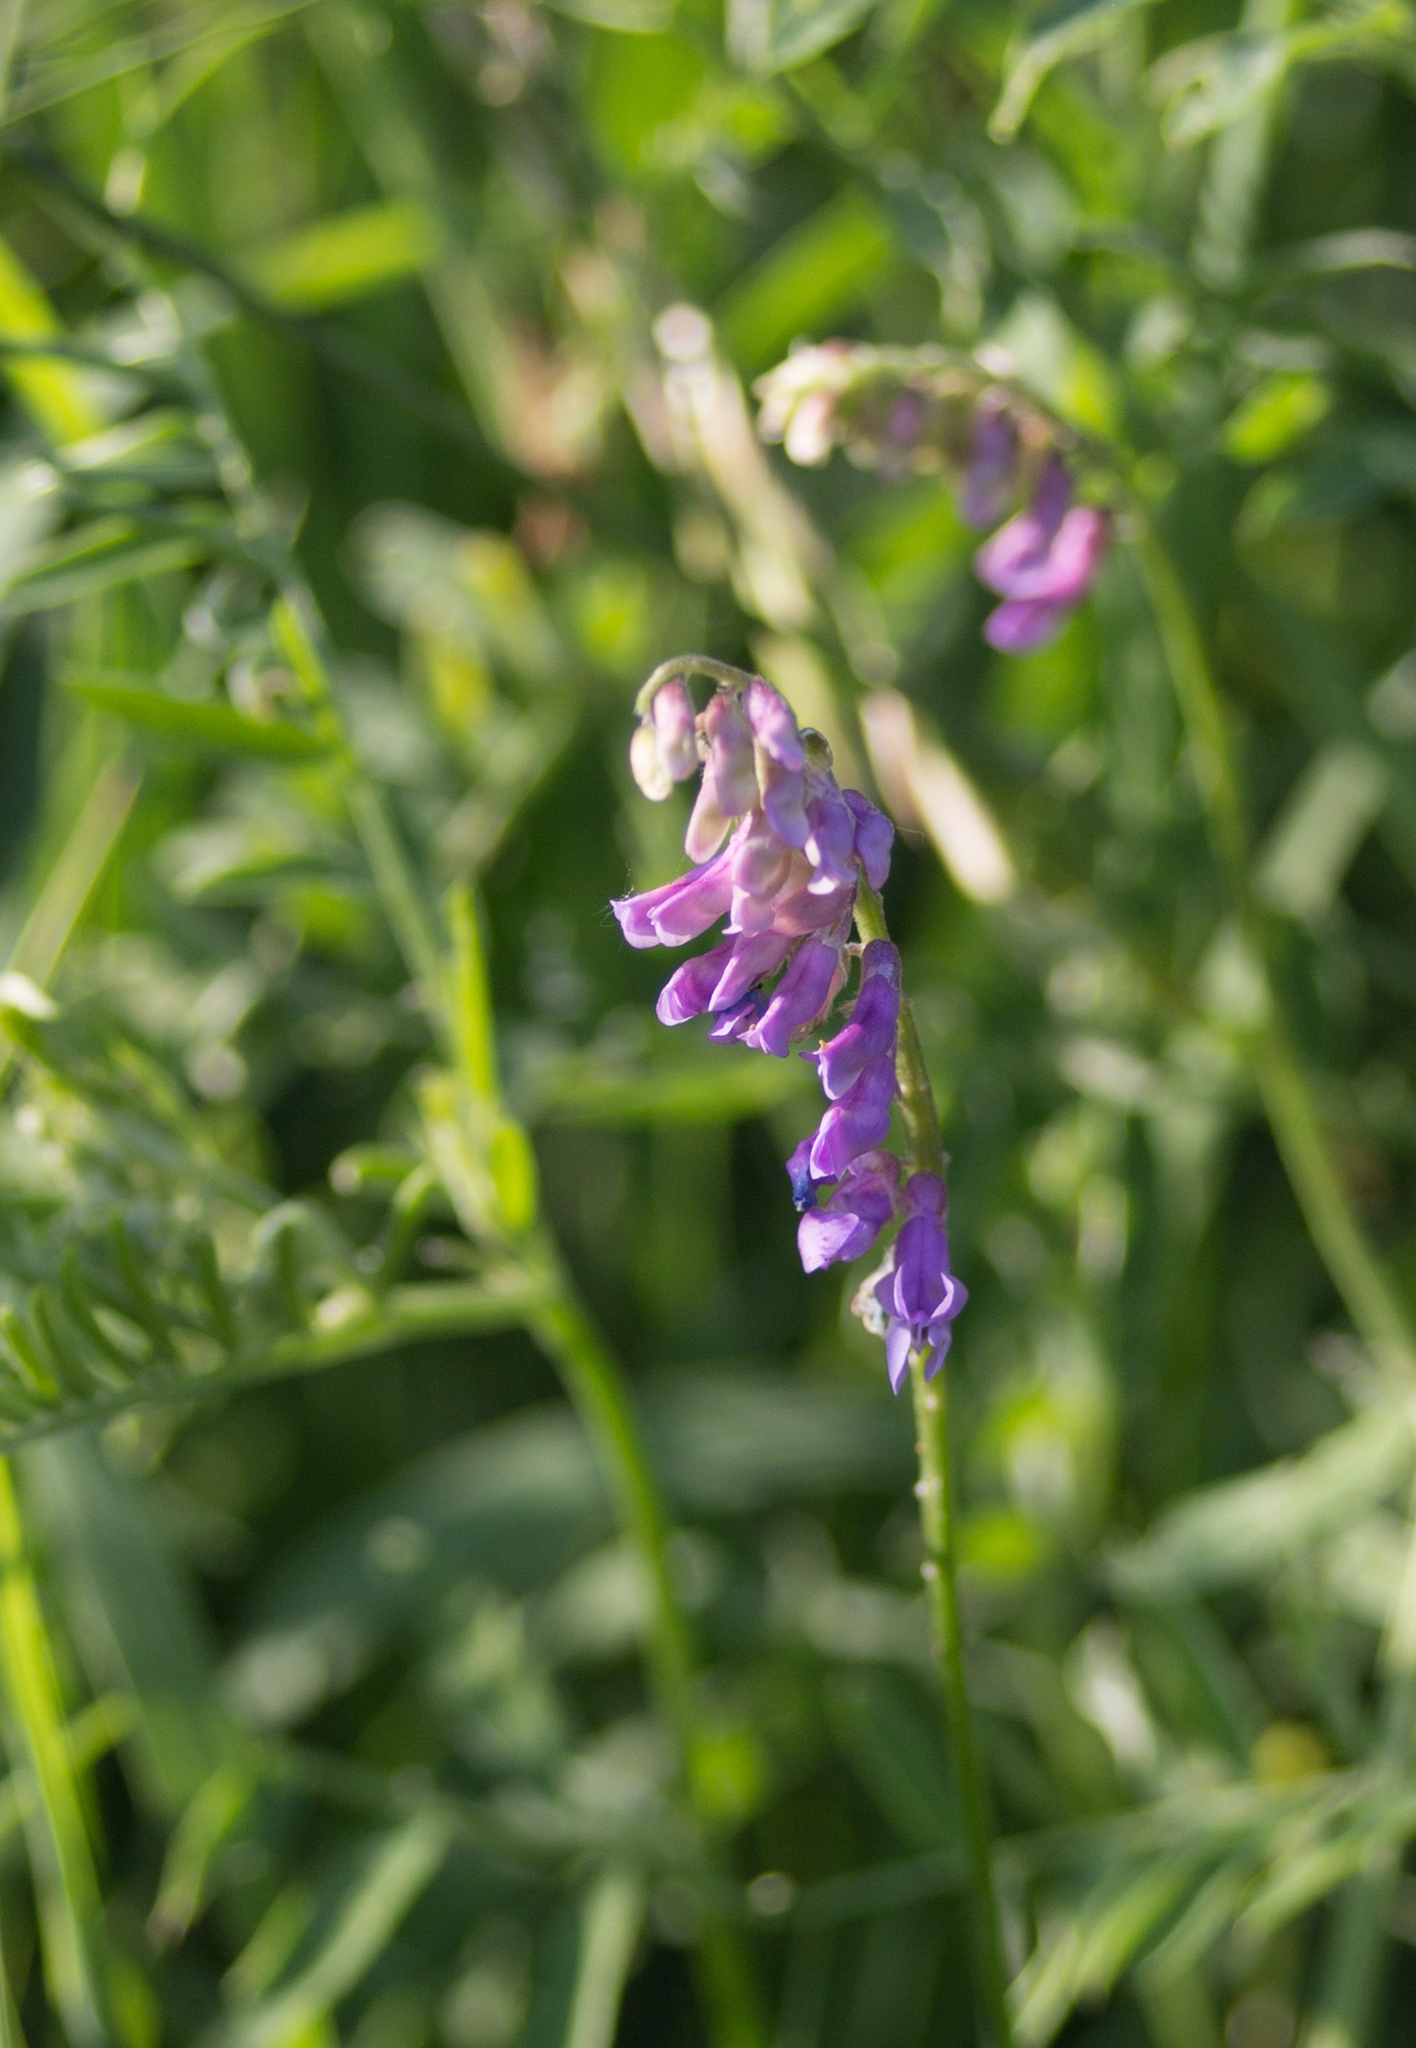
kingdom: Plantae
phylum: Tracheophyta
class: Magnoliopsida
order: Fabales
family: Fabaceae
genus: Vicia
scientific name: Vicia cracca
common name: Bird vetch
